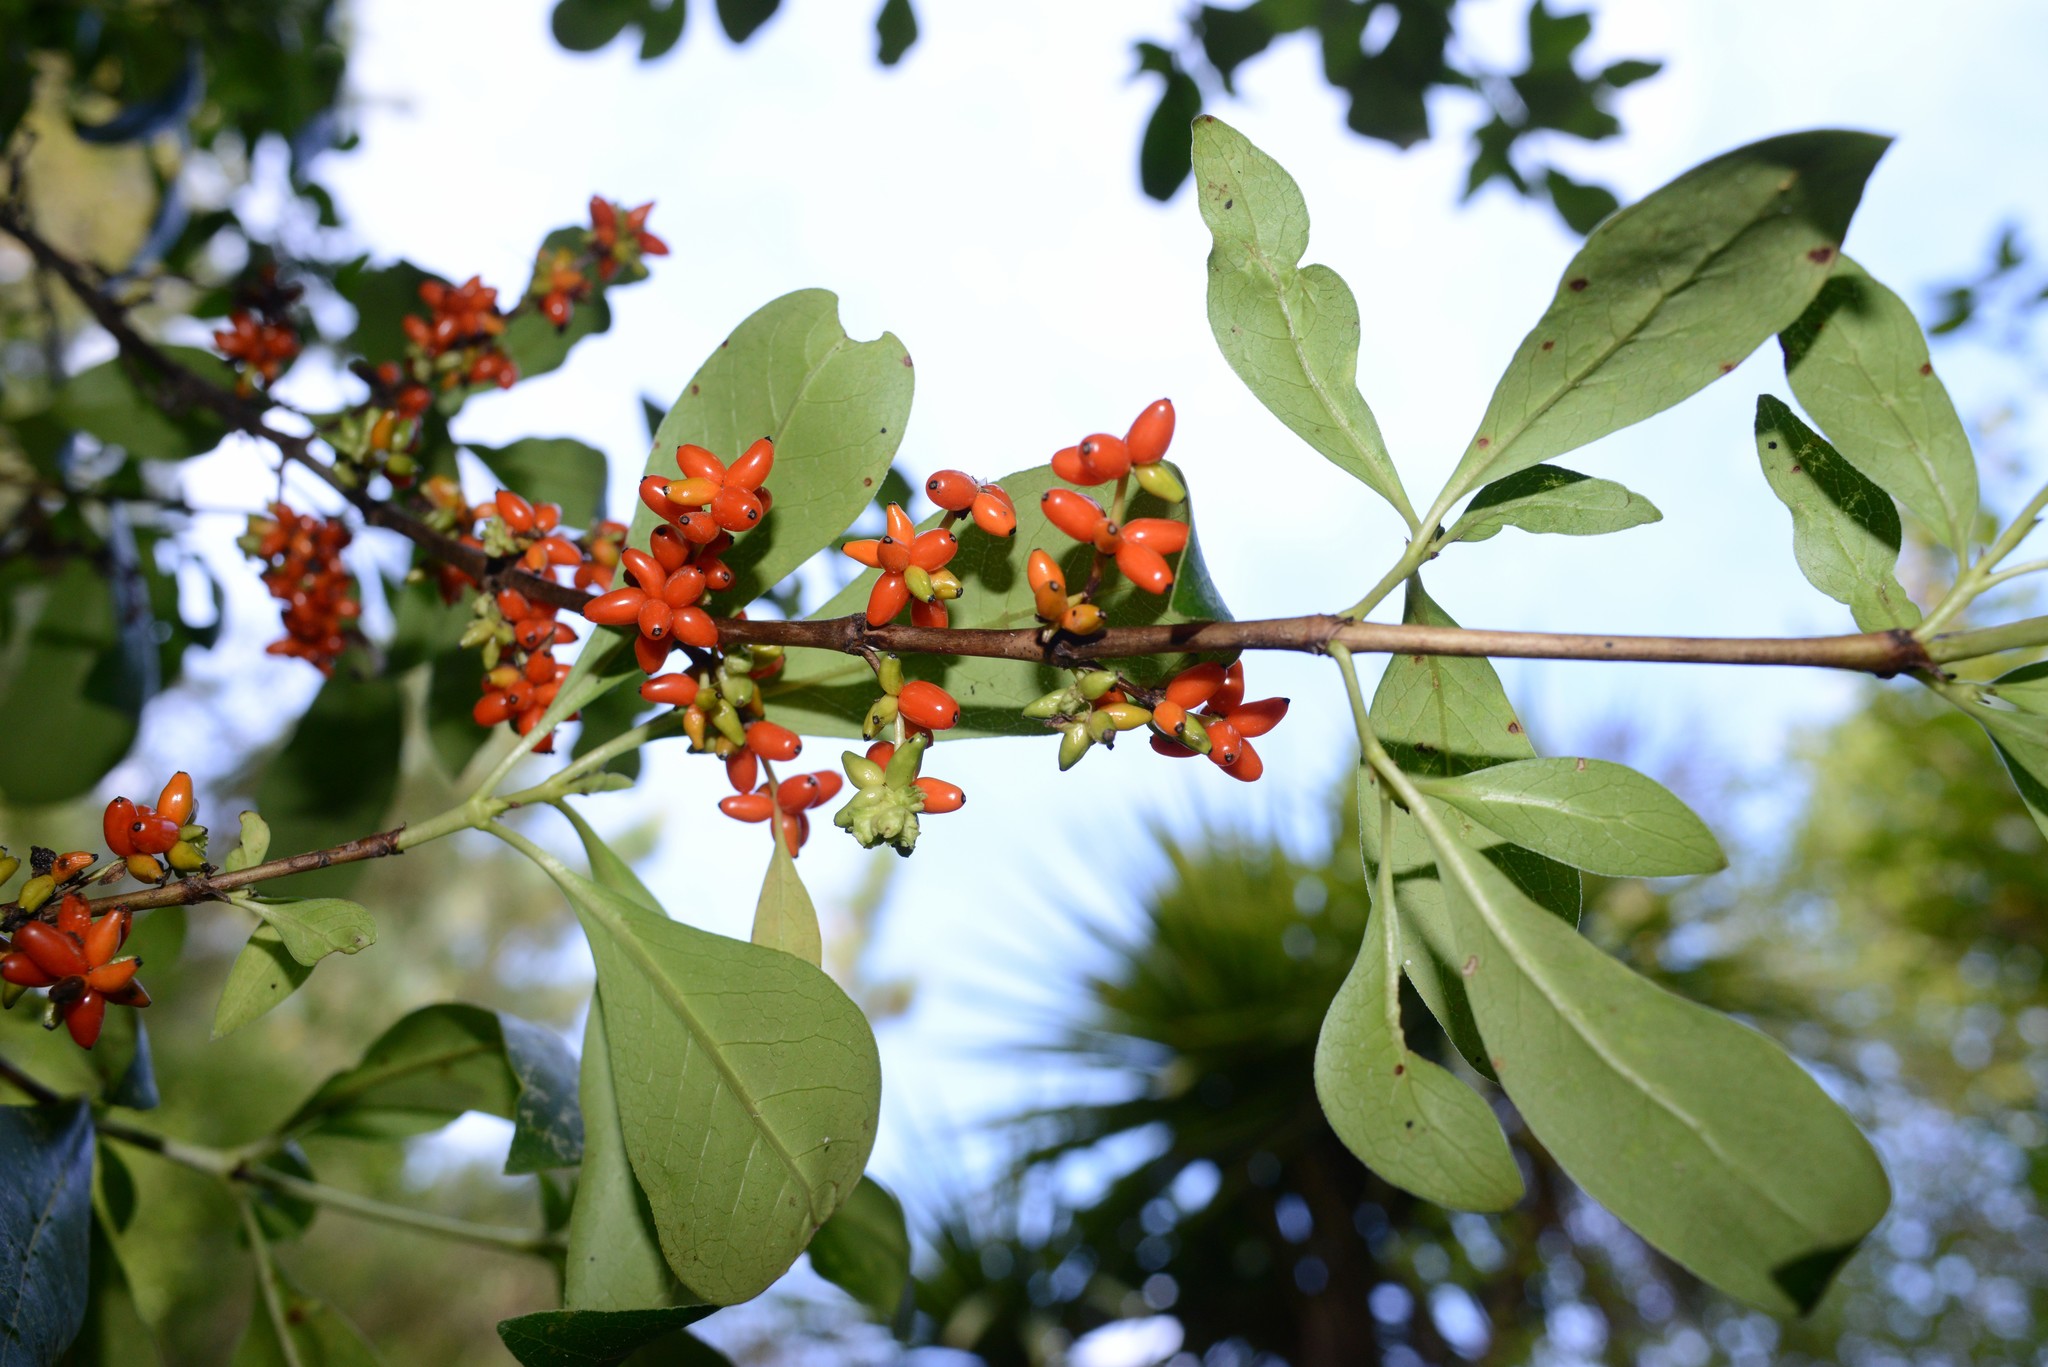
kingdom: Plantae
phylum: Tracheophyta
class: Magnoliopsida
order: Gentianales
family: Rubiaceae
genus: Coprosma
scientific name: Coprosma robusta
